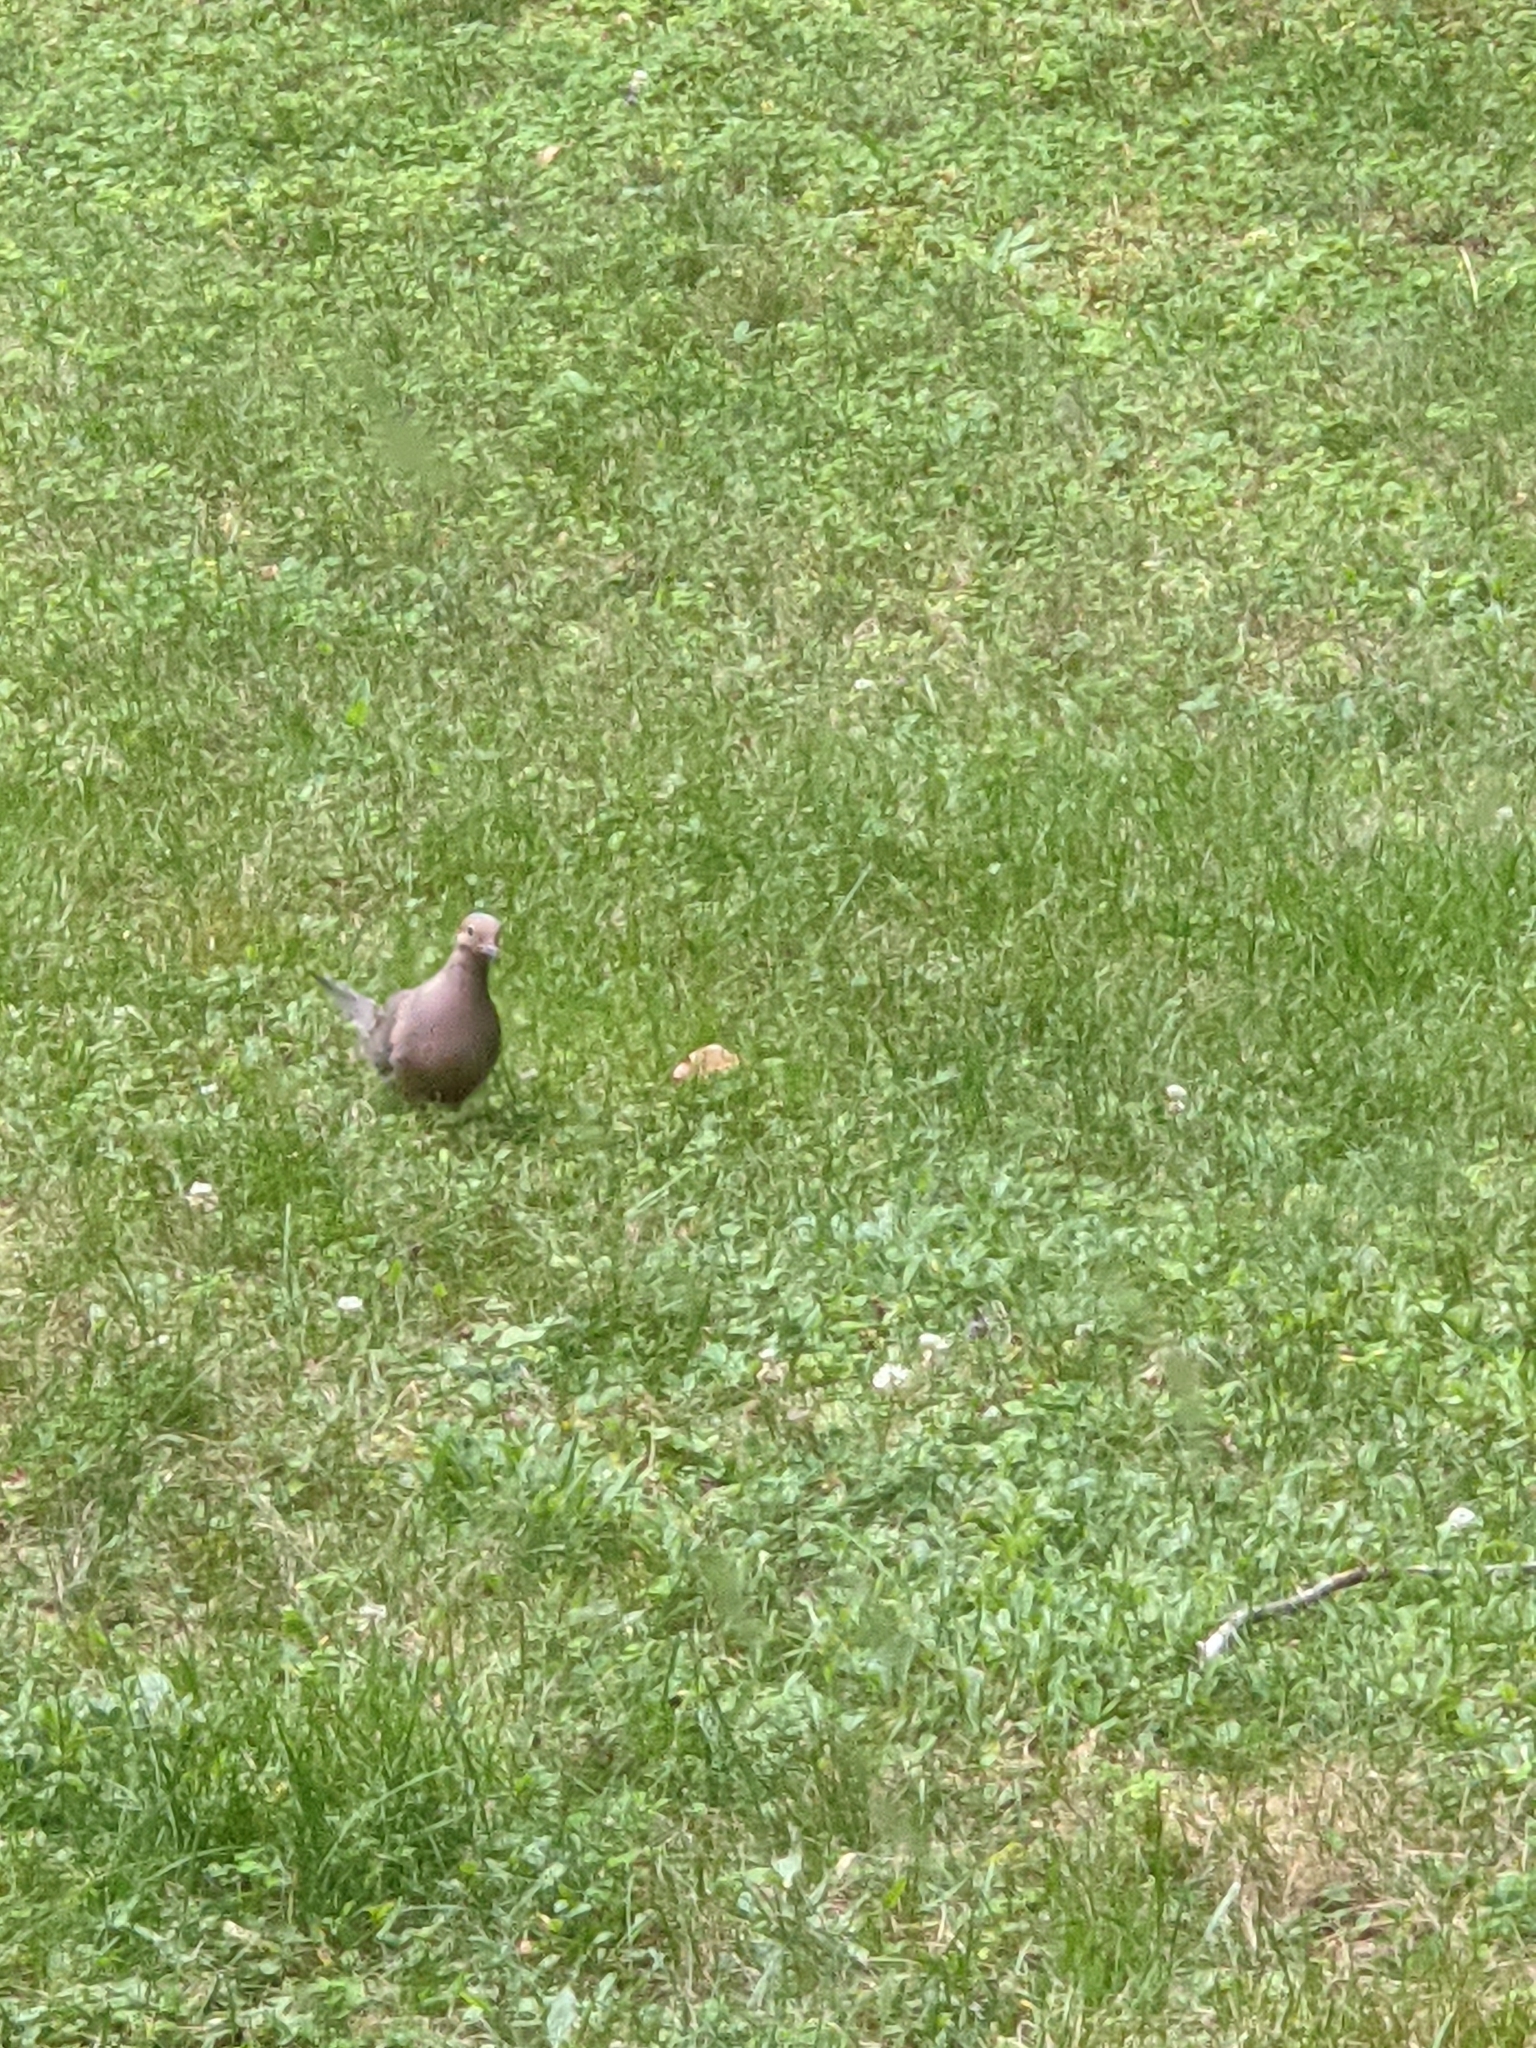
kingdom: Animalia
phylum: Chordata
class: Aves
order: Columbiformes
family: Columbidae
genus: Zenaida
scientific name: Zenaida macroura
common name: Mourning dove
